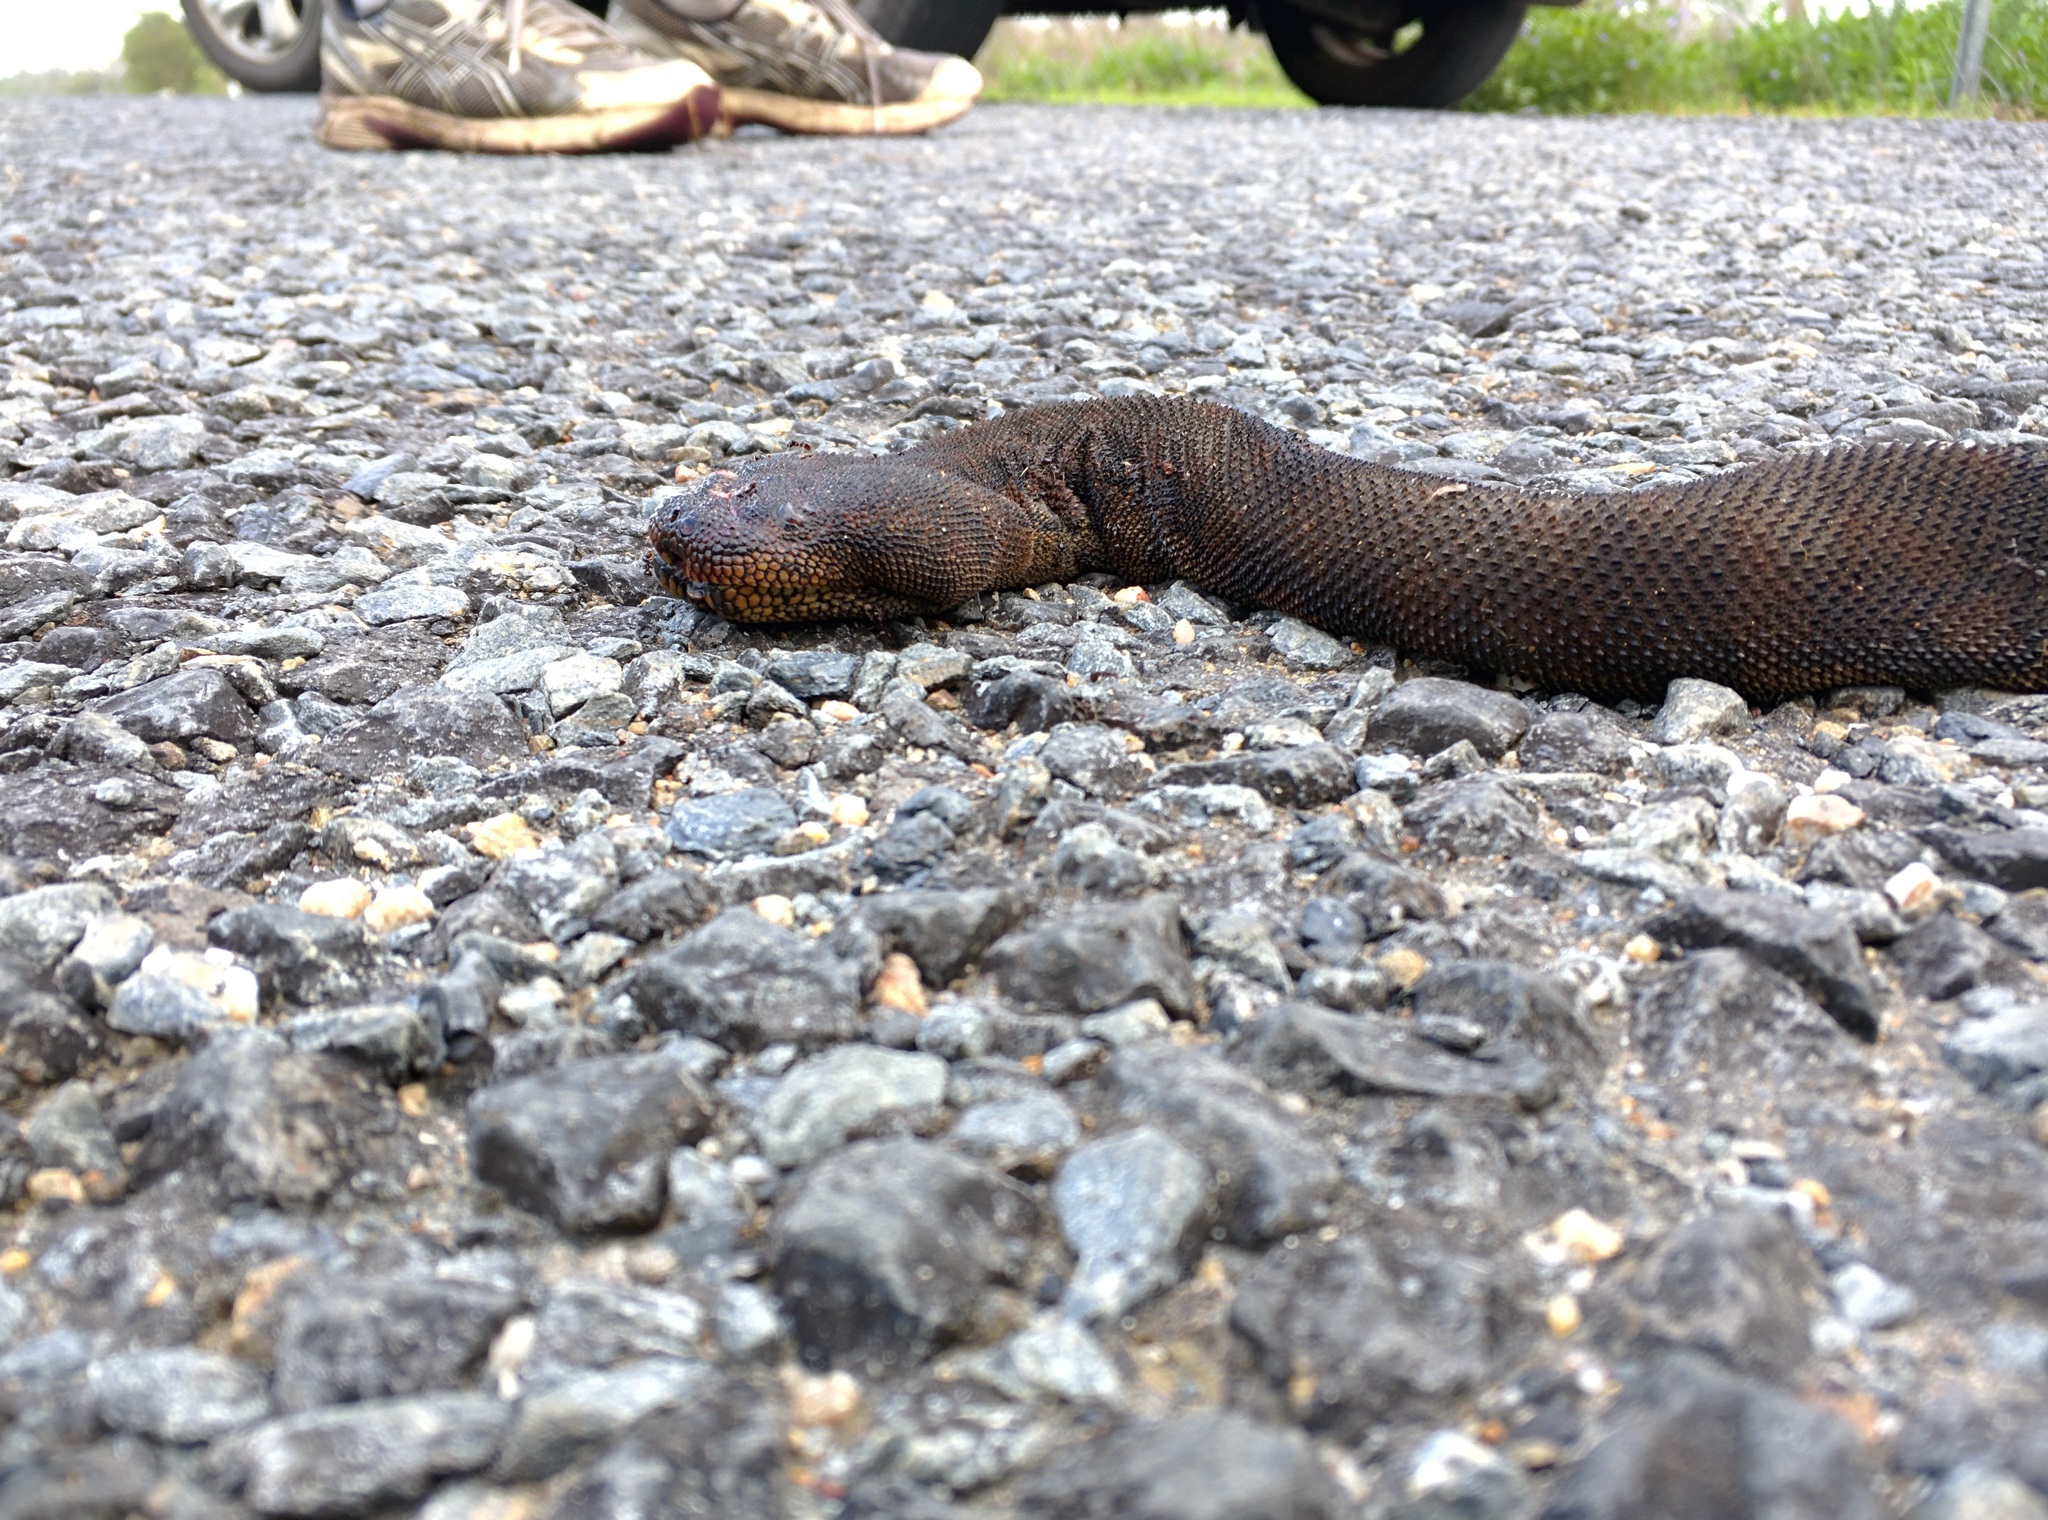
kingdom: Animalia
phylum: Chordata
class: Squamata
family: Acrochordidae
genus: Acrochordus
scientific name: Acrochordus arafurae
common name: Arafura file snake
